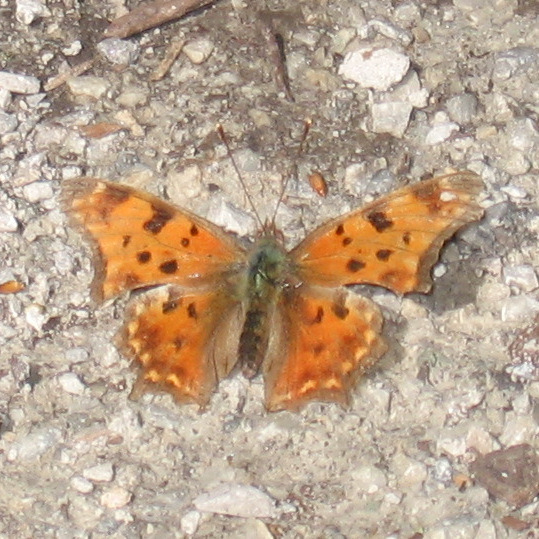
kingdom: Animalia
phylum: Arthropoda
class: Insecta
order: Lepidoptera
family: Nymphalidae
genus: Polygonia
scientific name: Polygonia comma
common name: Eastern comma
